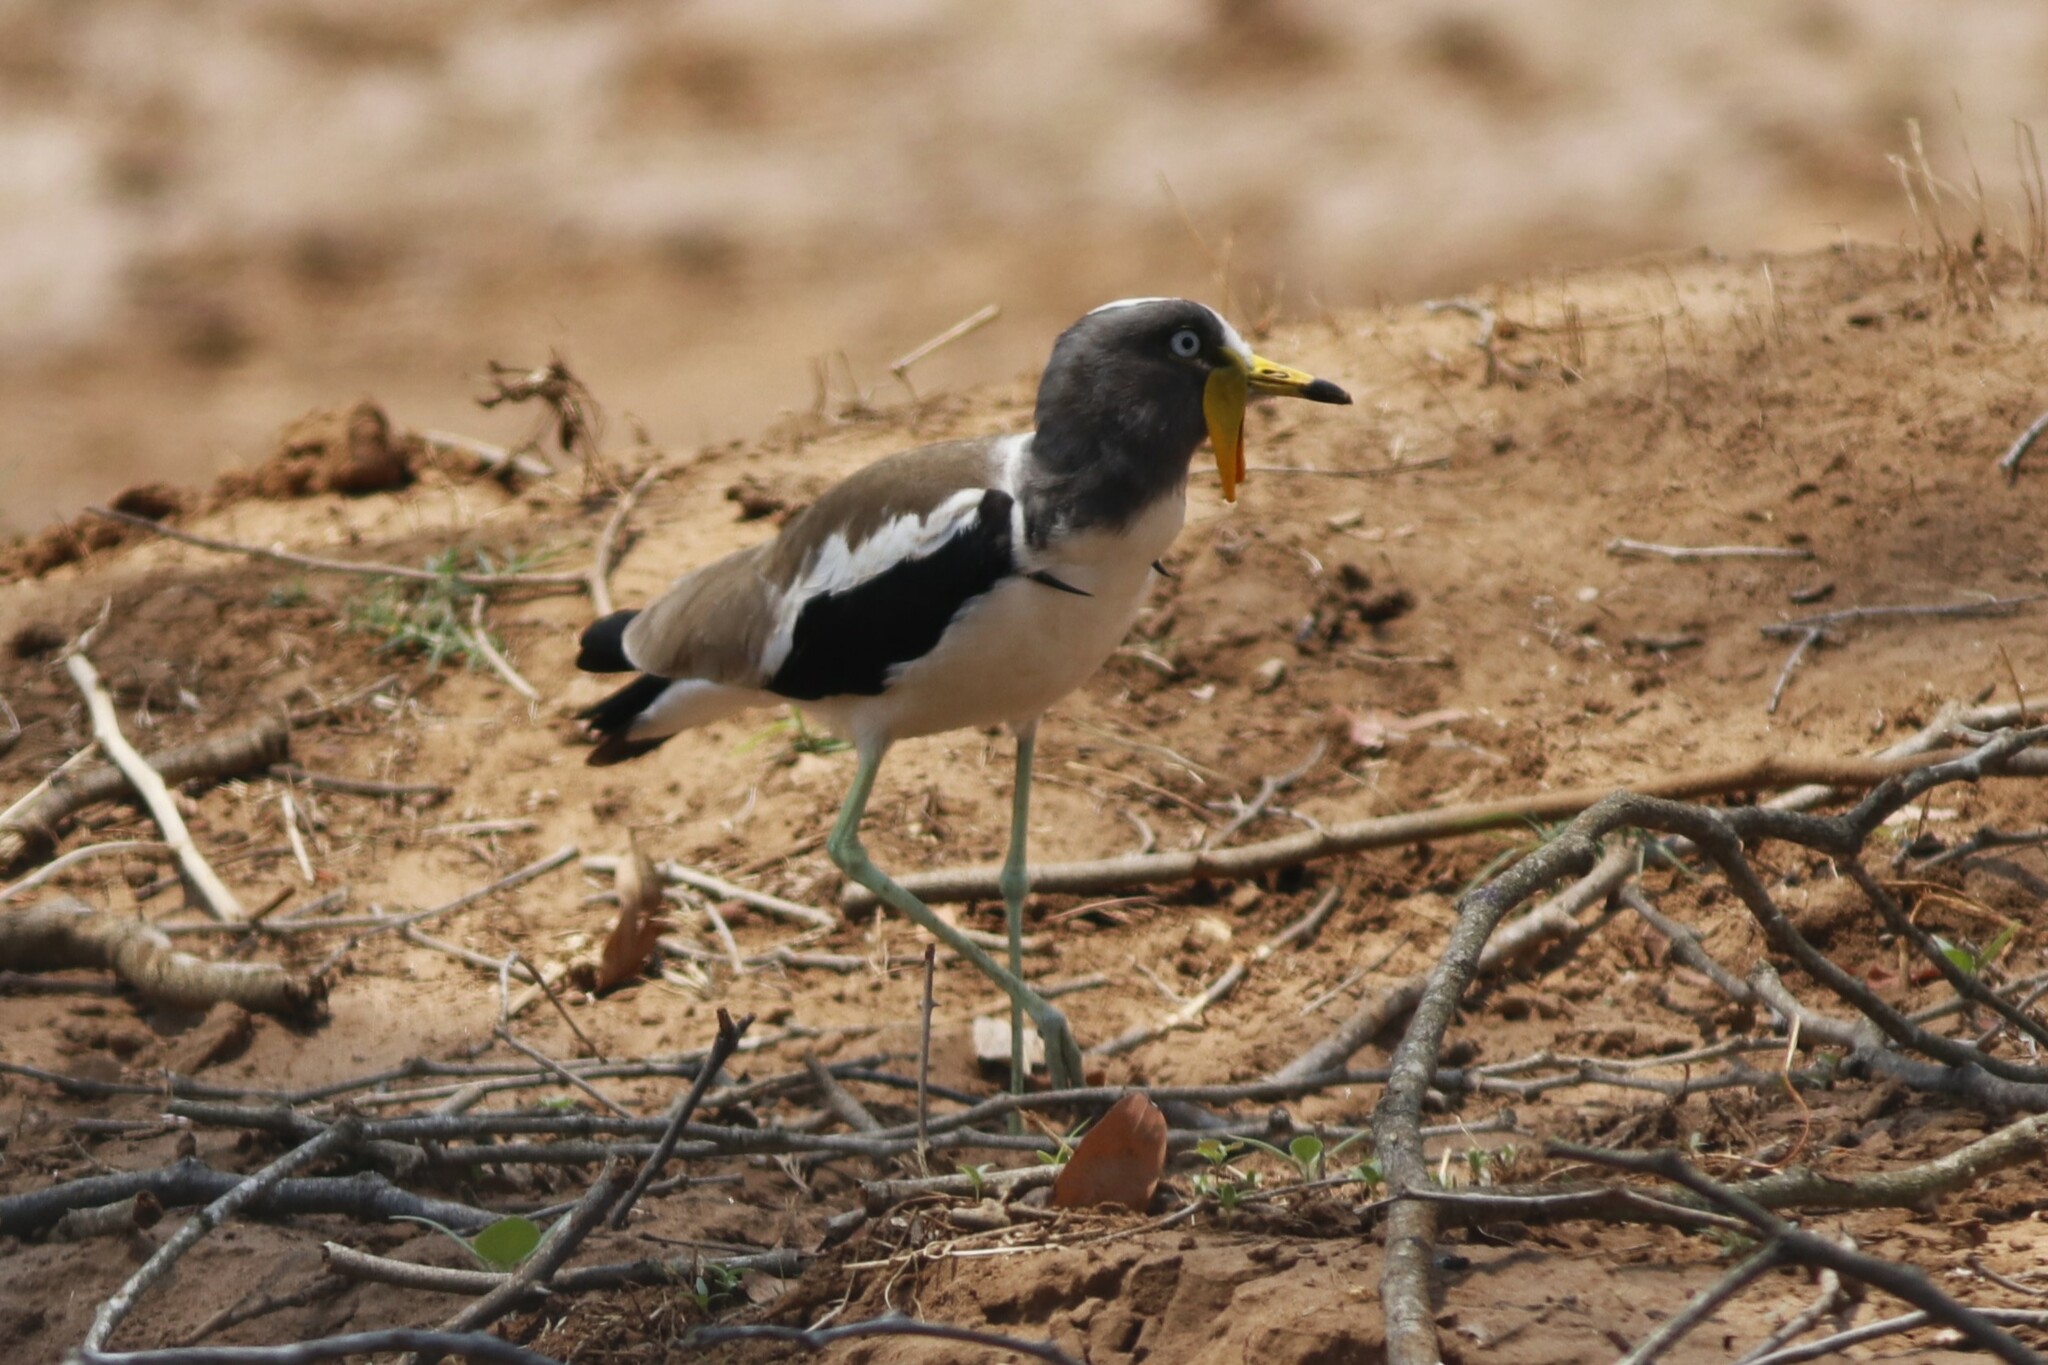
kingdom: Animalia
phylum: Chordata
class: Aves
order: Charadriiformes
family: Charadriidae
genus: Vanellus
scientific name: Vanellus albiceps
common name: White-crowned lapwing
